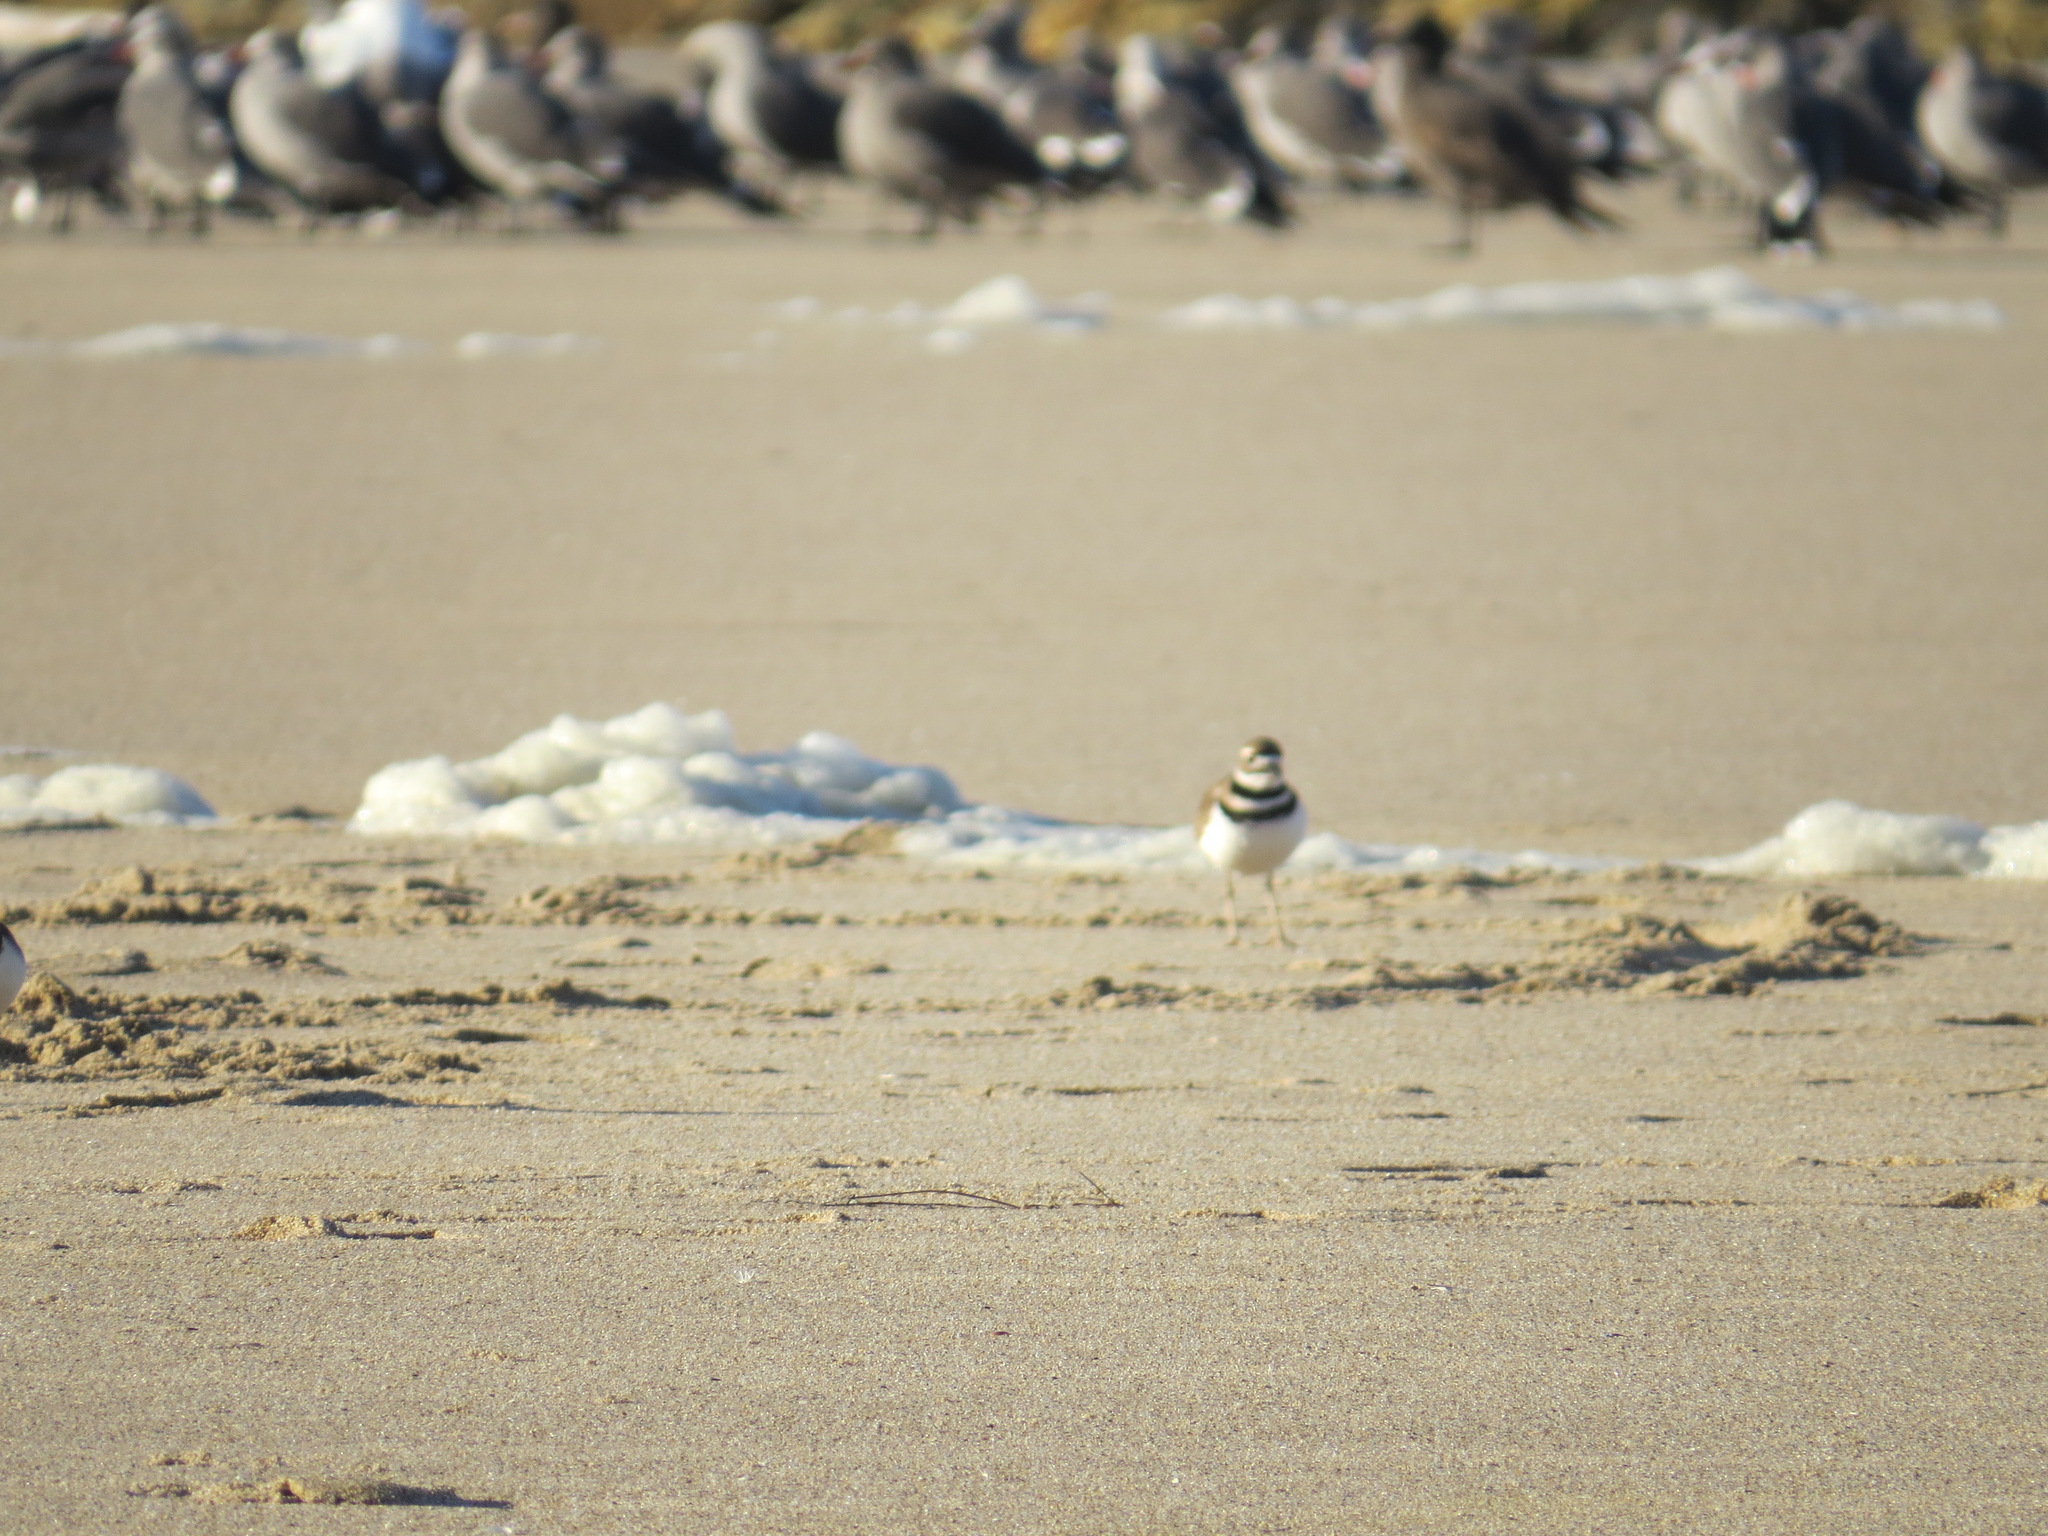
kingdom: Animalia
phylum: Chordata
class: Aves
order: Charadriiformes
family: Charadriidae
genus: Charadrius
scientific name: Charadrius vociferus
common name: Killdeer
